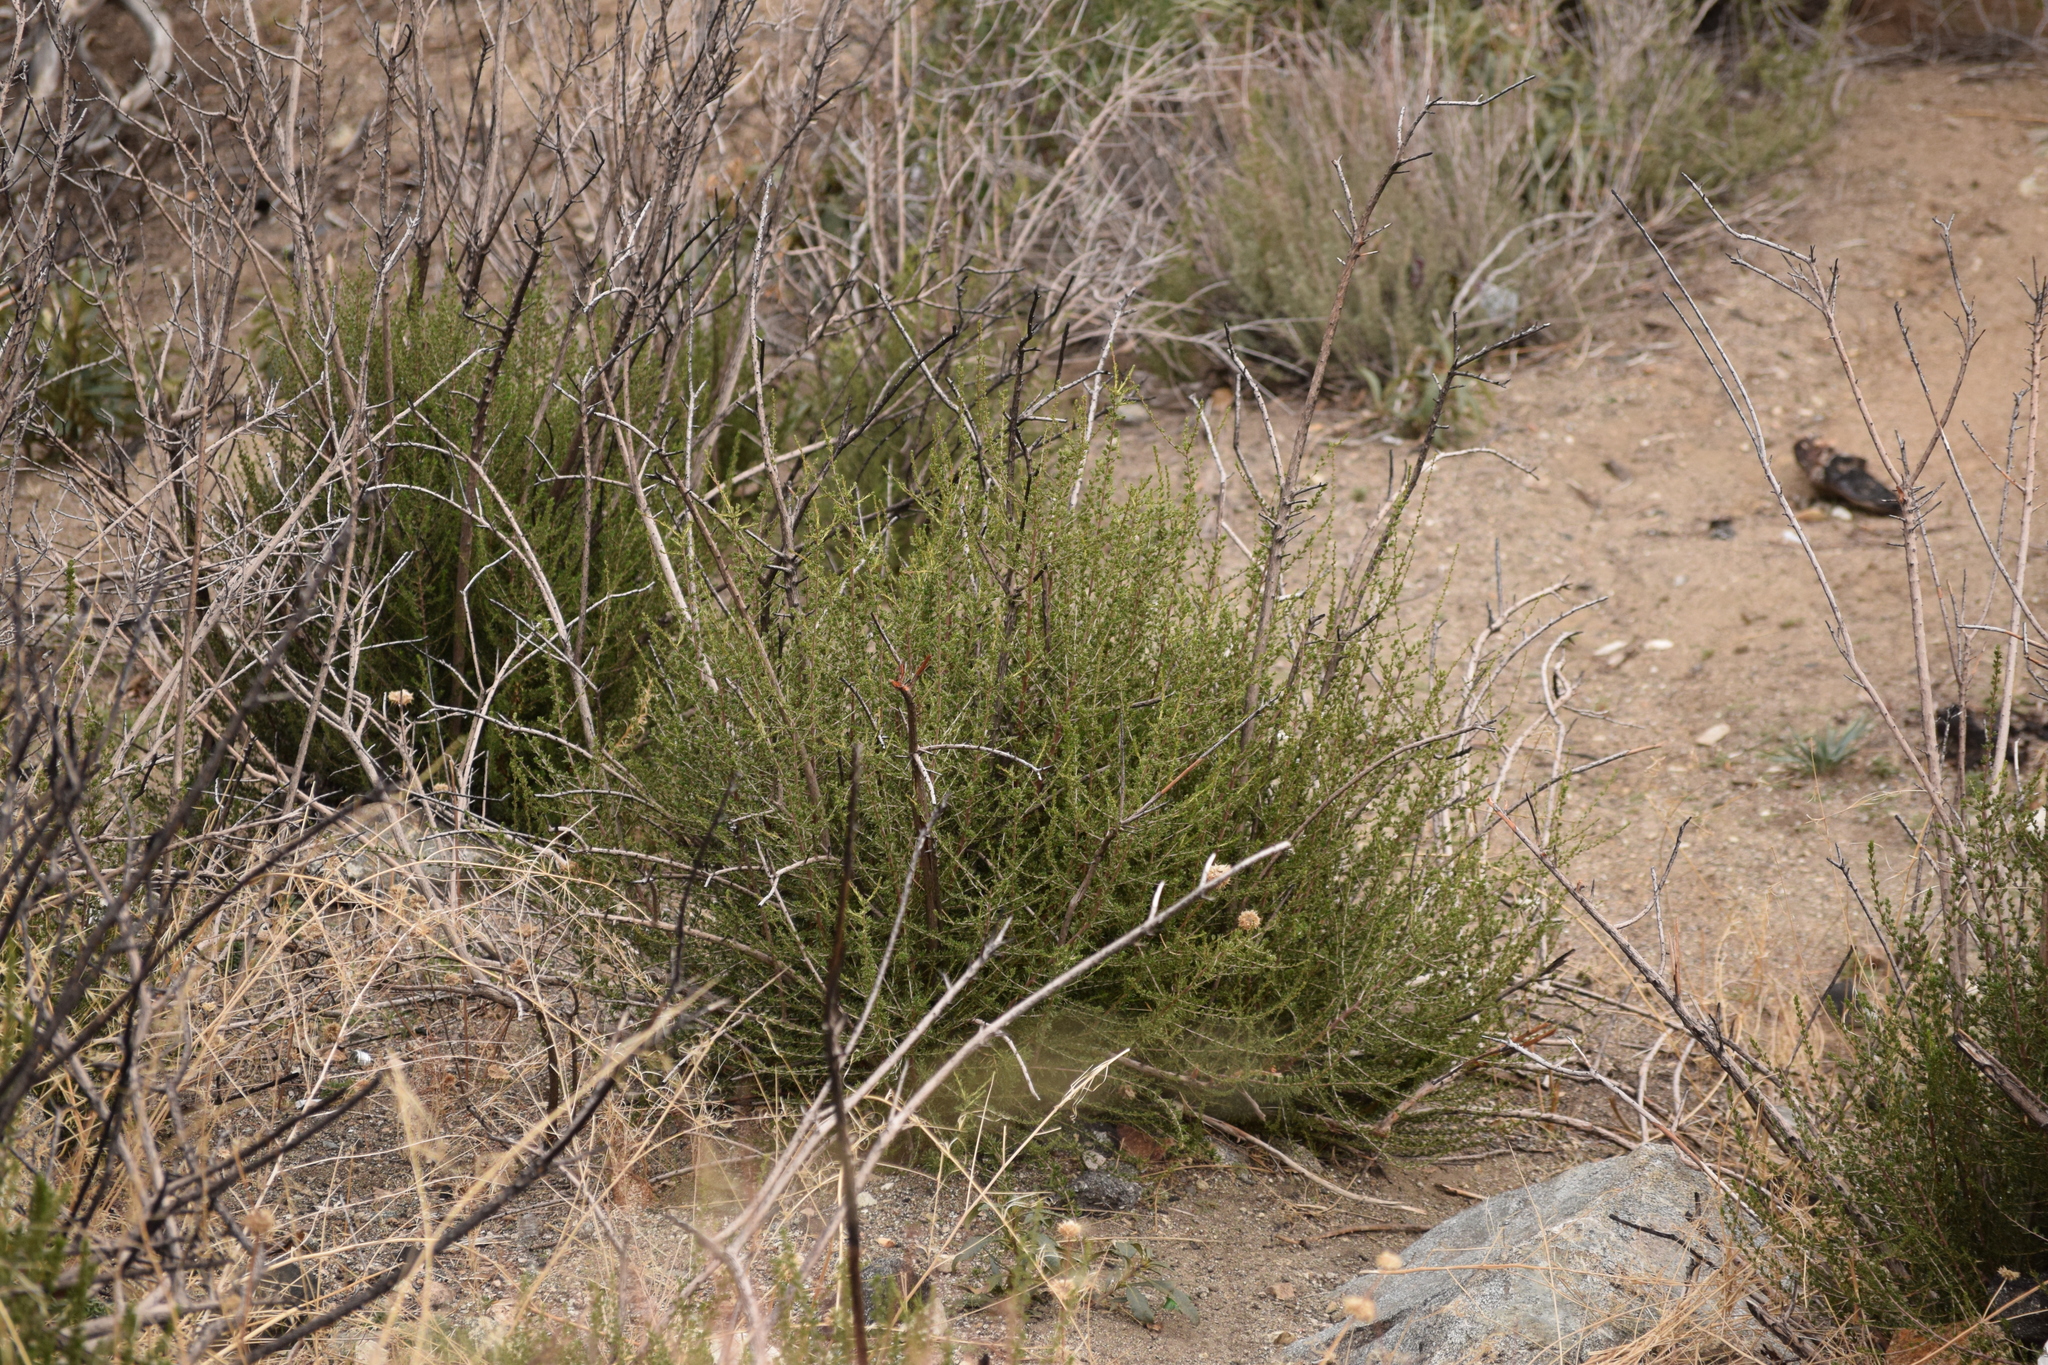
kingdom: Plantae
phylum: Tracheophyta
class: Magnoliopsida
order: Rosales
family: Rosaceae
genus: Adenostoma
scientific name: Adenostoma fasciculatum
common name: Chamise
